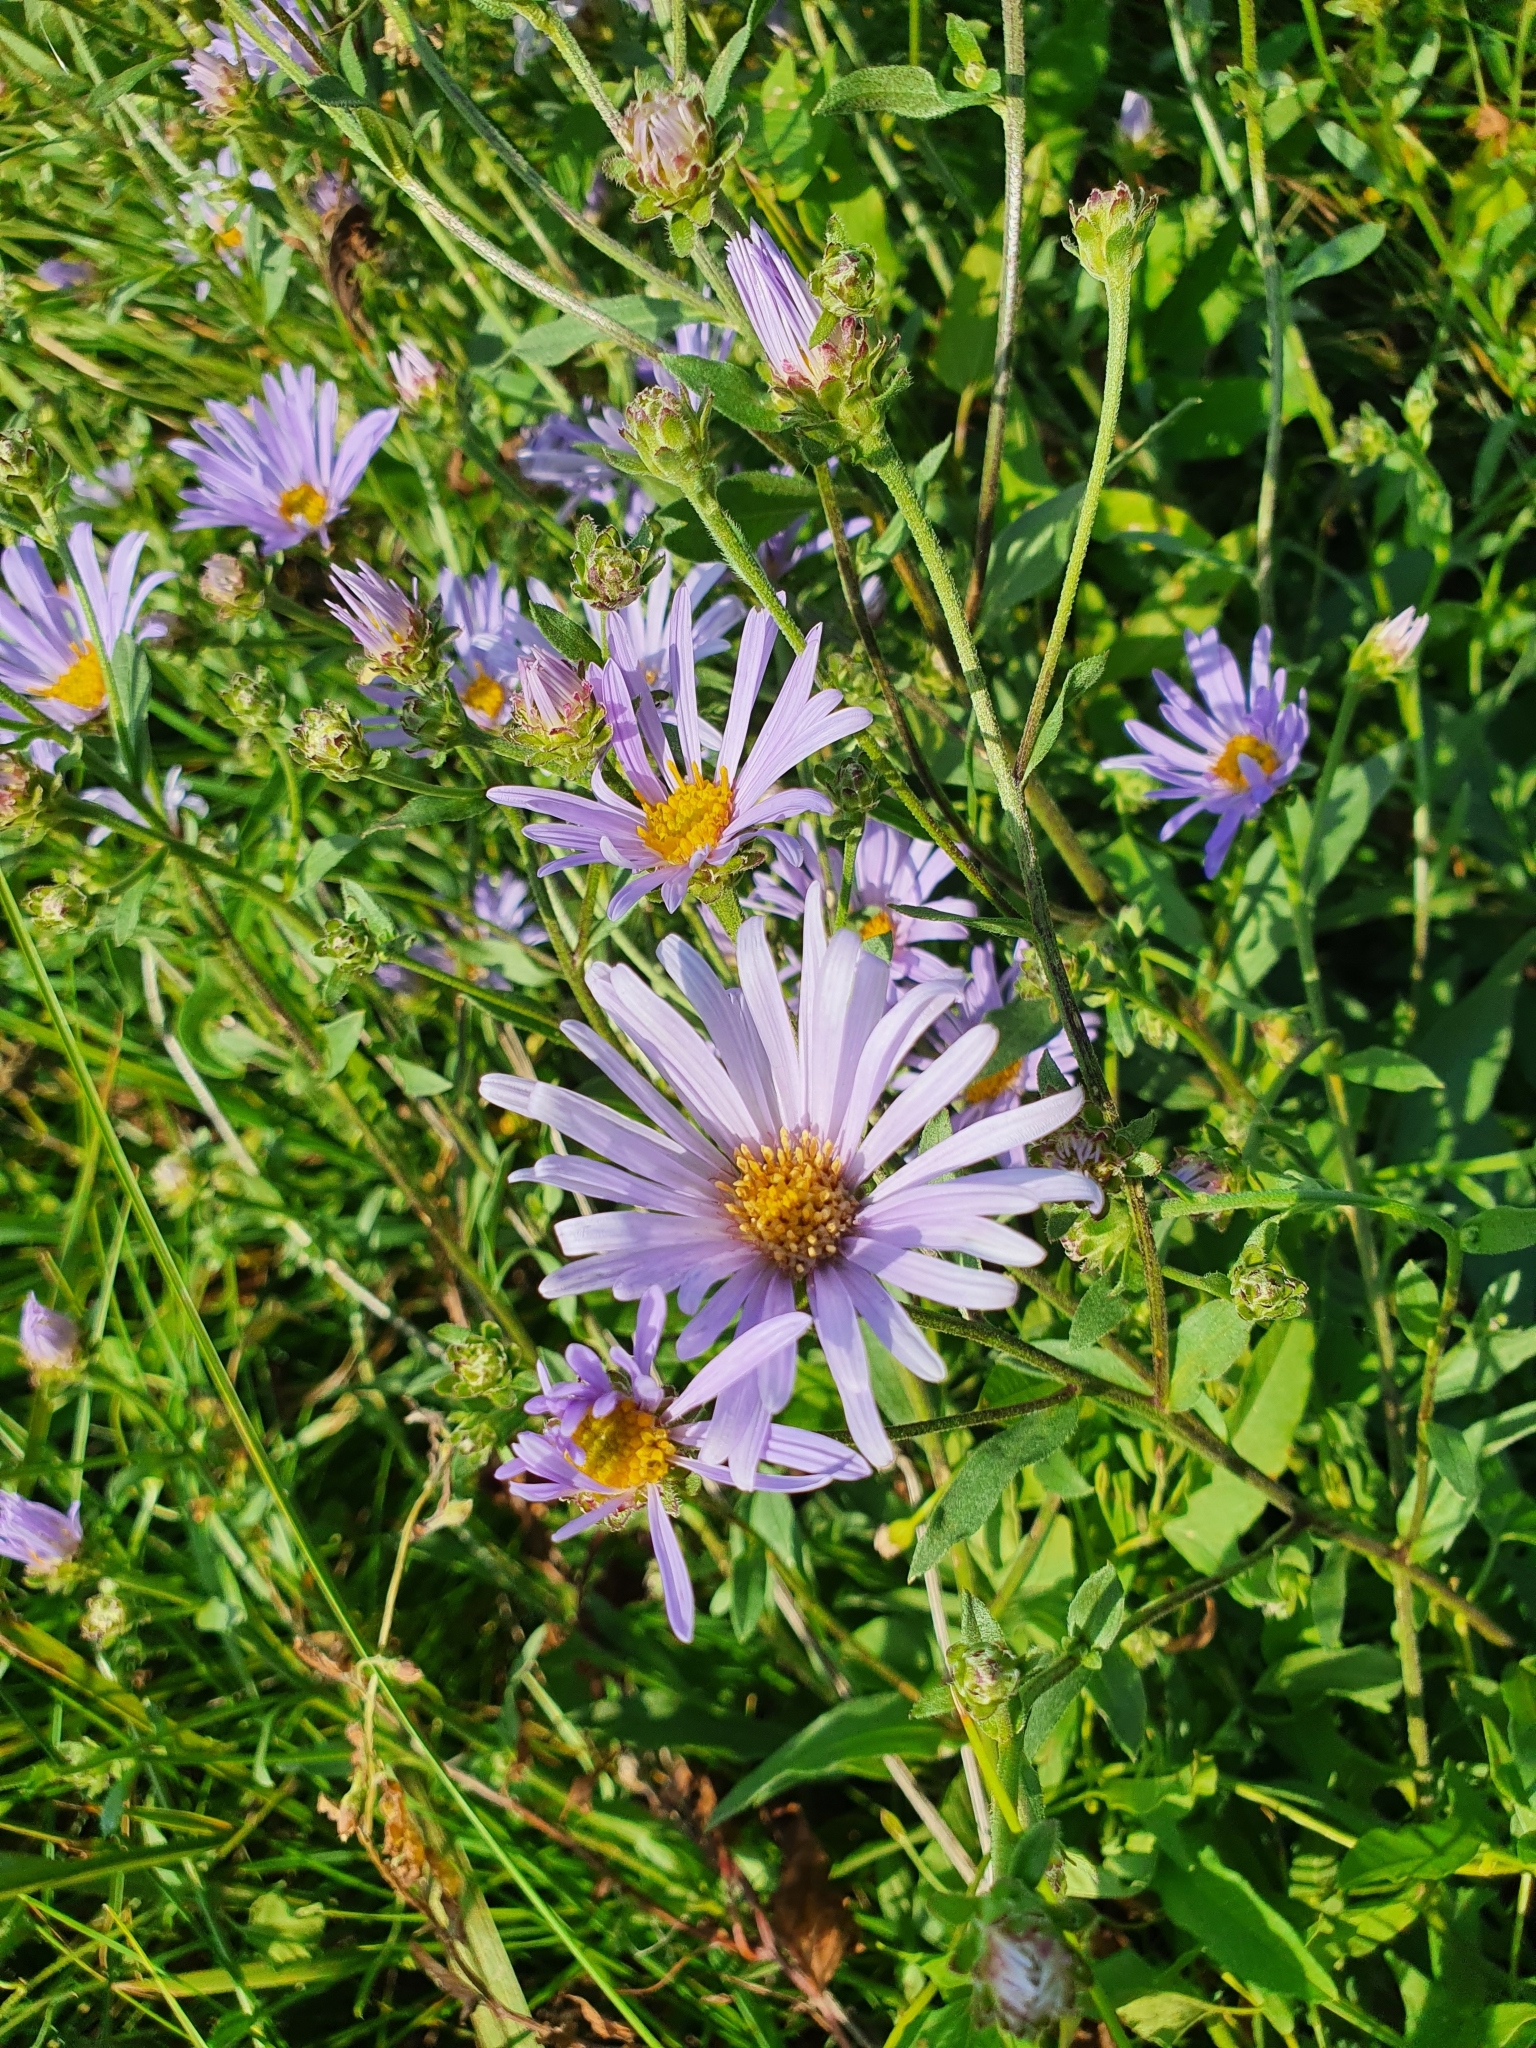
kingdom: Plantae
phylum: Tracheophyta
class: Magnoliopsida
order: Asterales
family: Asteraceae
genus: Aster
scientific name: Aster amellus
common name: European michaelmas daisy
